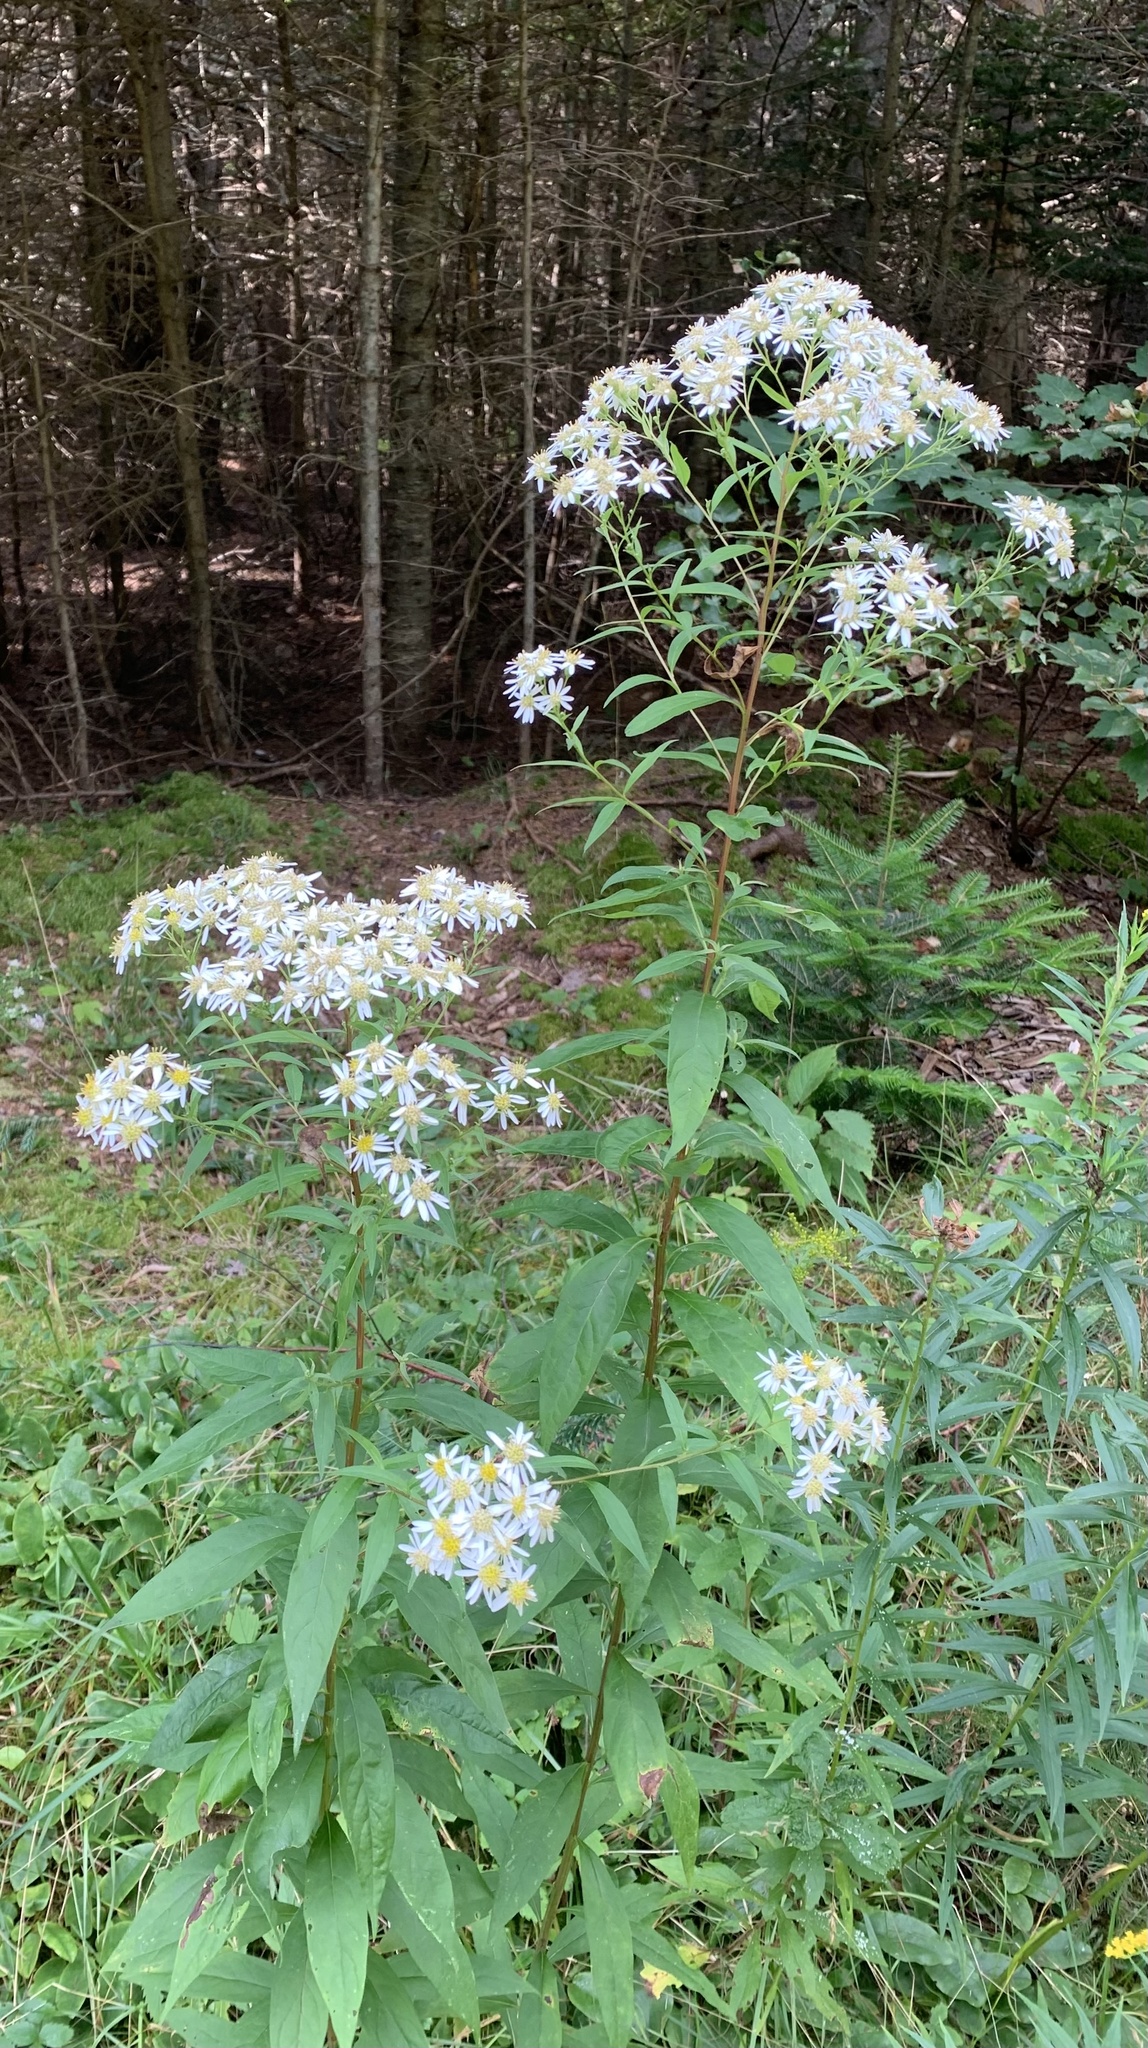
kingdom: Plantae
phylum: Tracheophyta
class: Magnoliopsida
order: Asterales
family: Asteraceae
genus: Doellingeria
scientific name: Doellingeria umbellata
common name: Flat-top white aster
